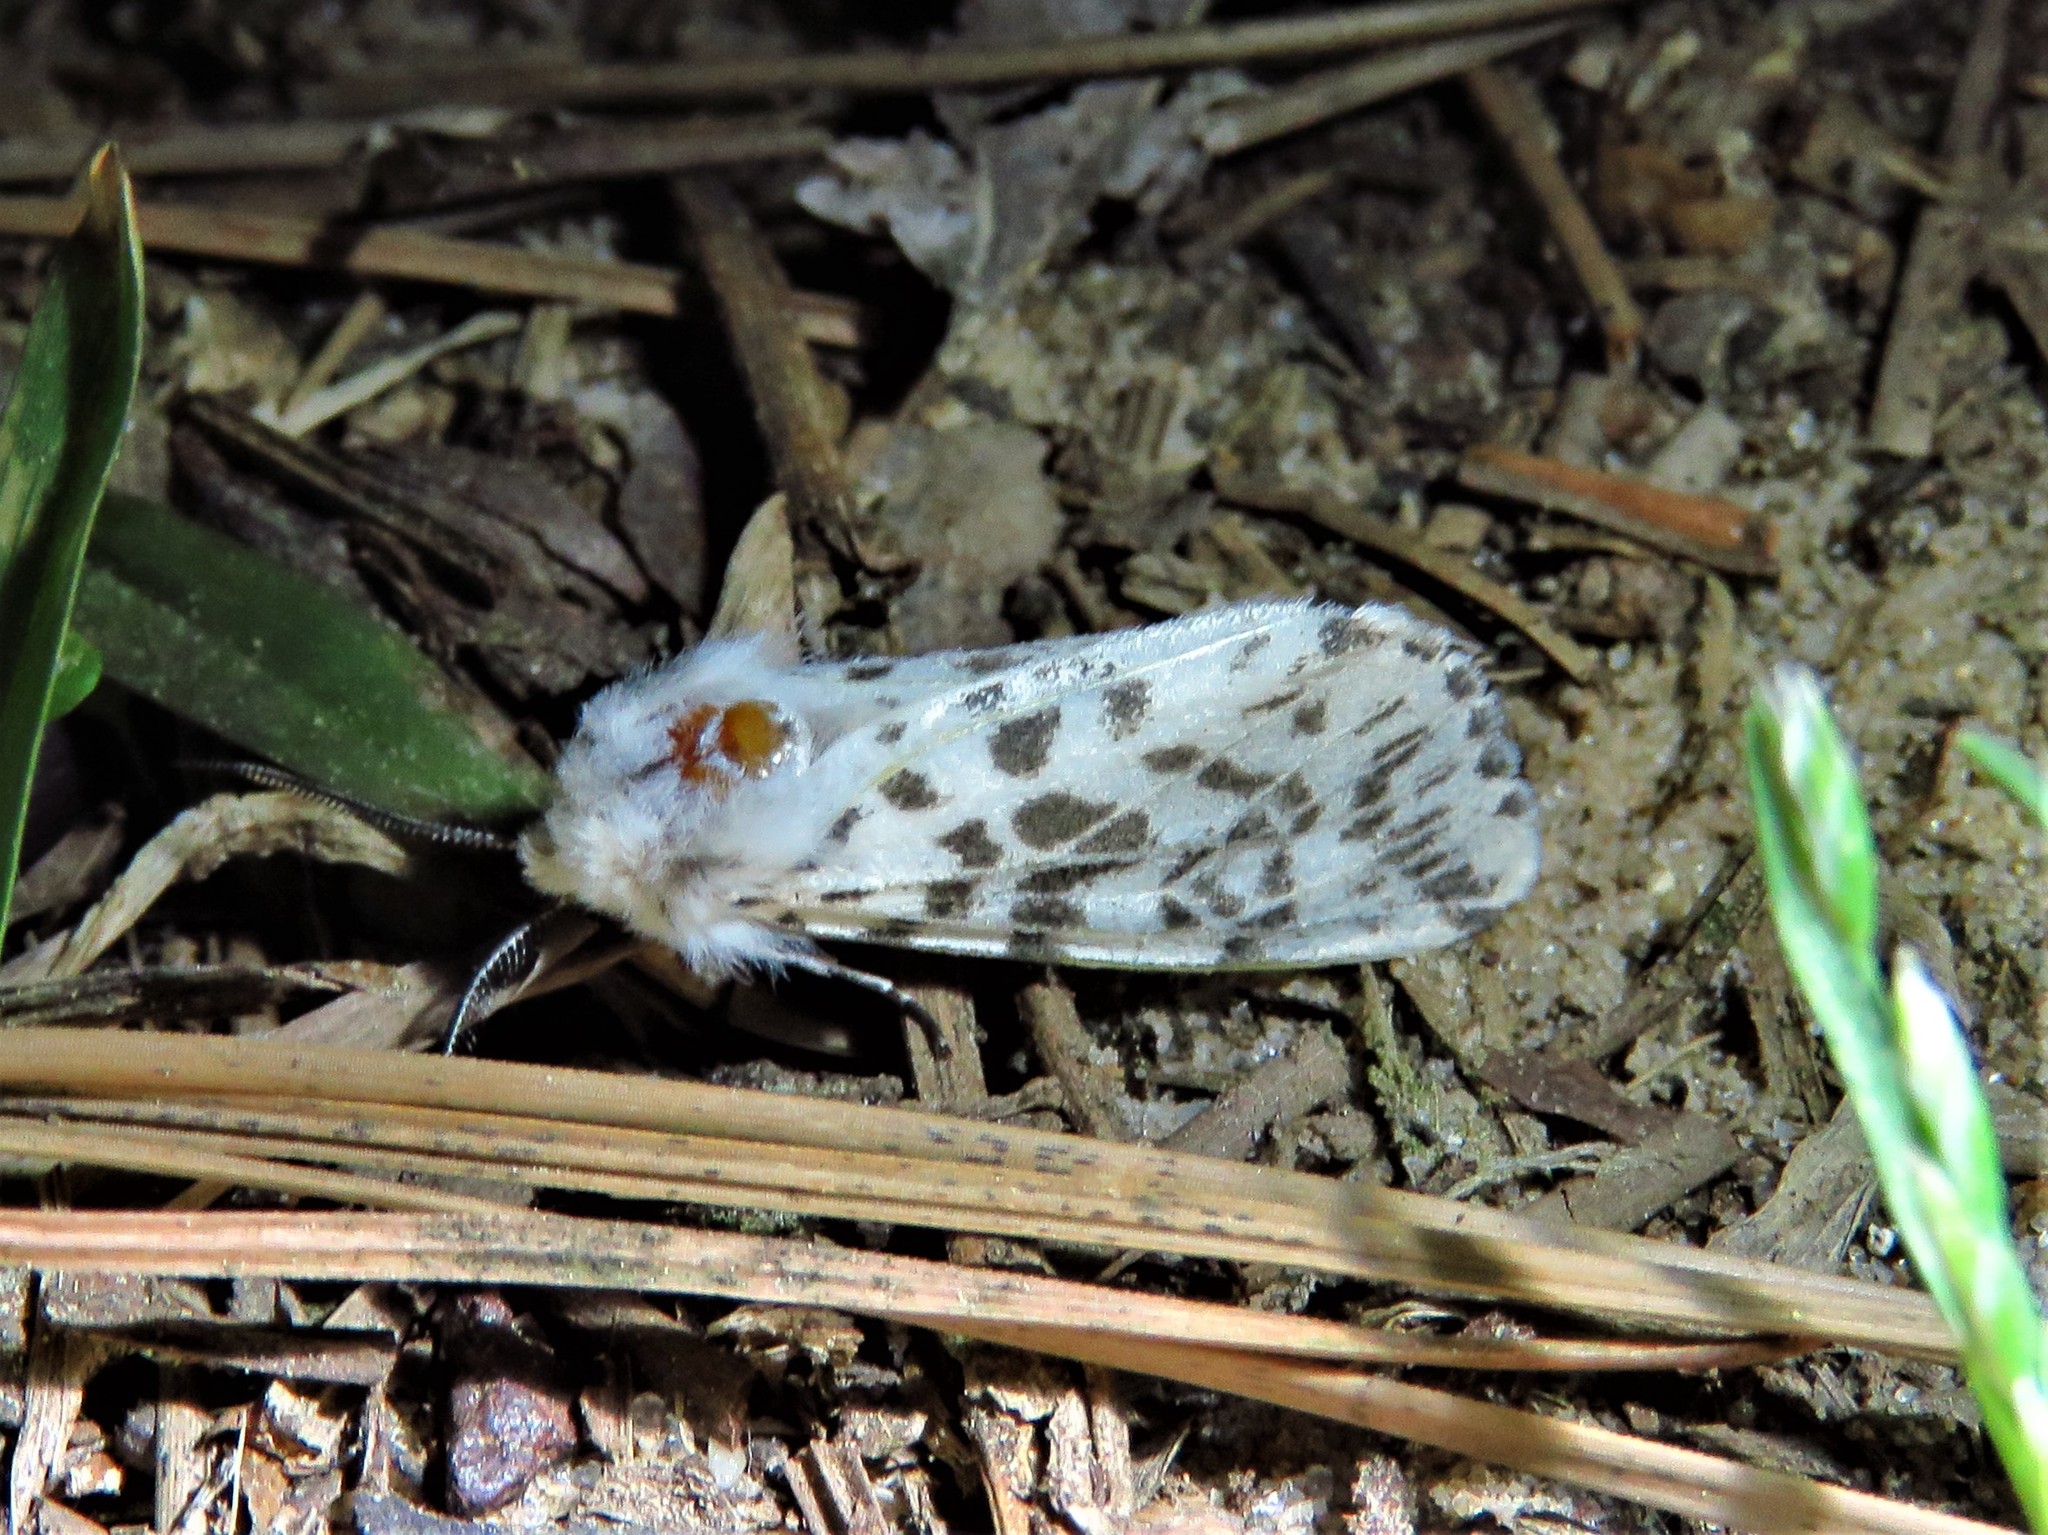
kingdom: Animalia
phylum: Arthropoda
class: Insecta
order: Lepidoptera
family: Erebidae
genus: Hyphantria
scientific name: Hyphantria cunea
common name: American white moth
